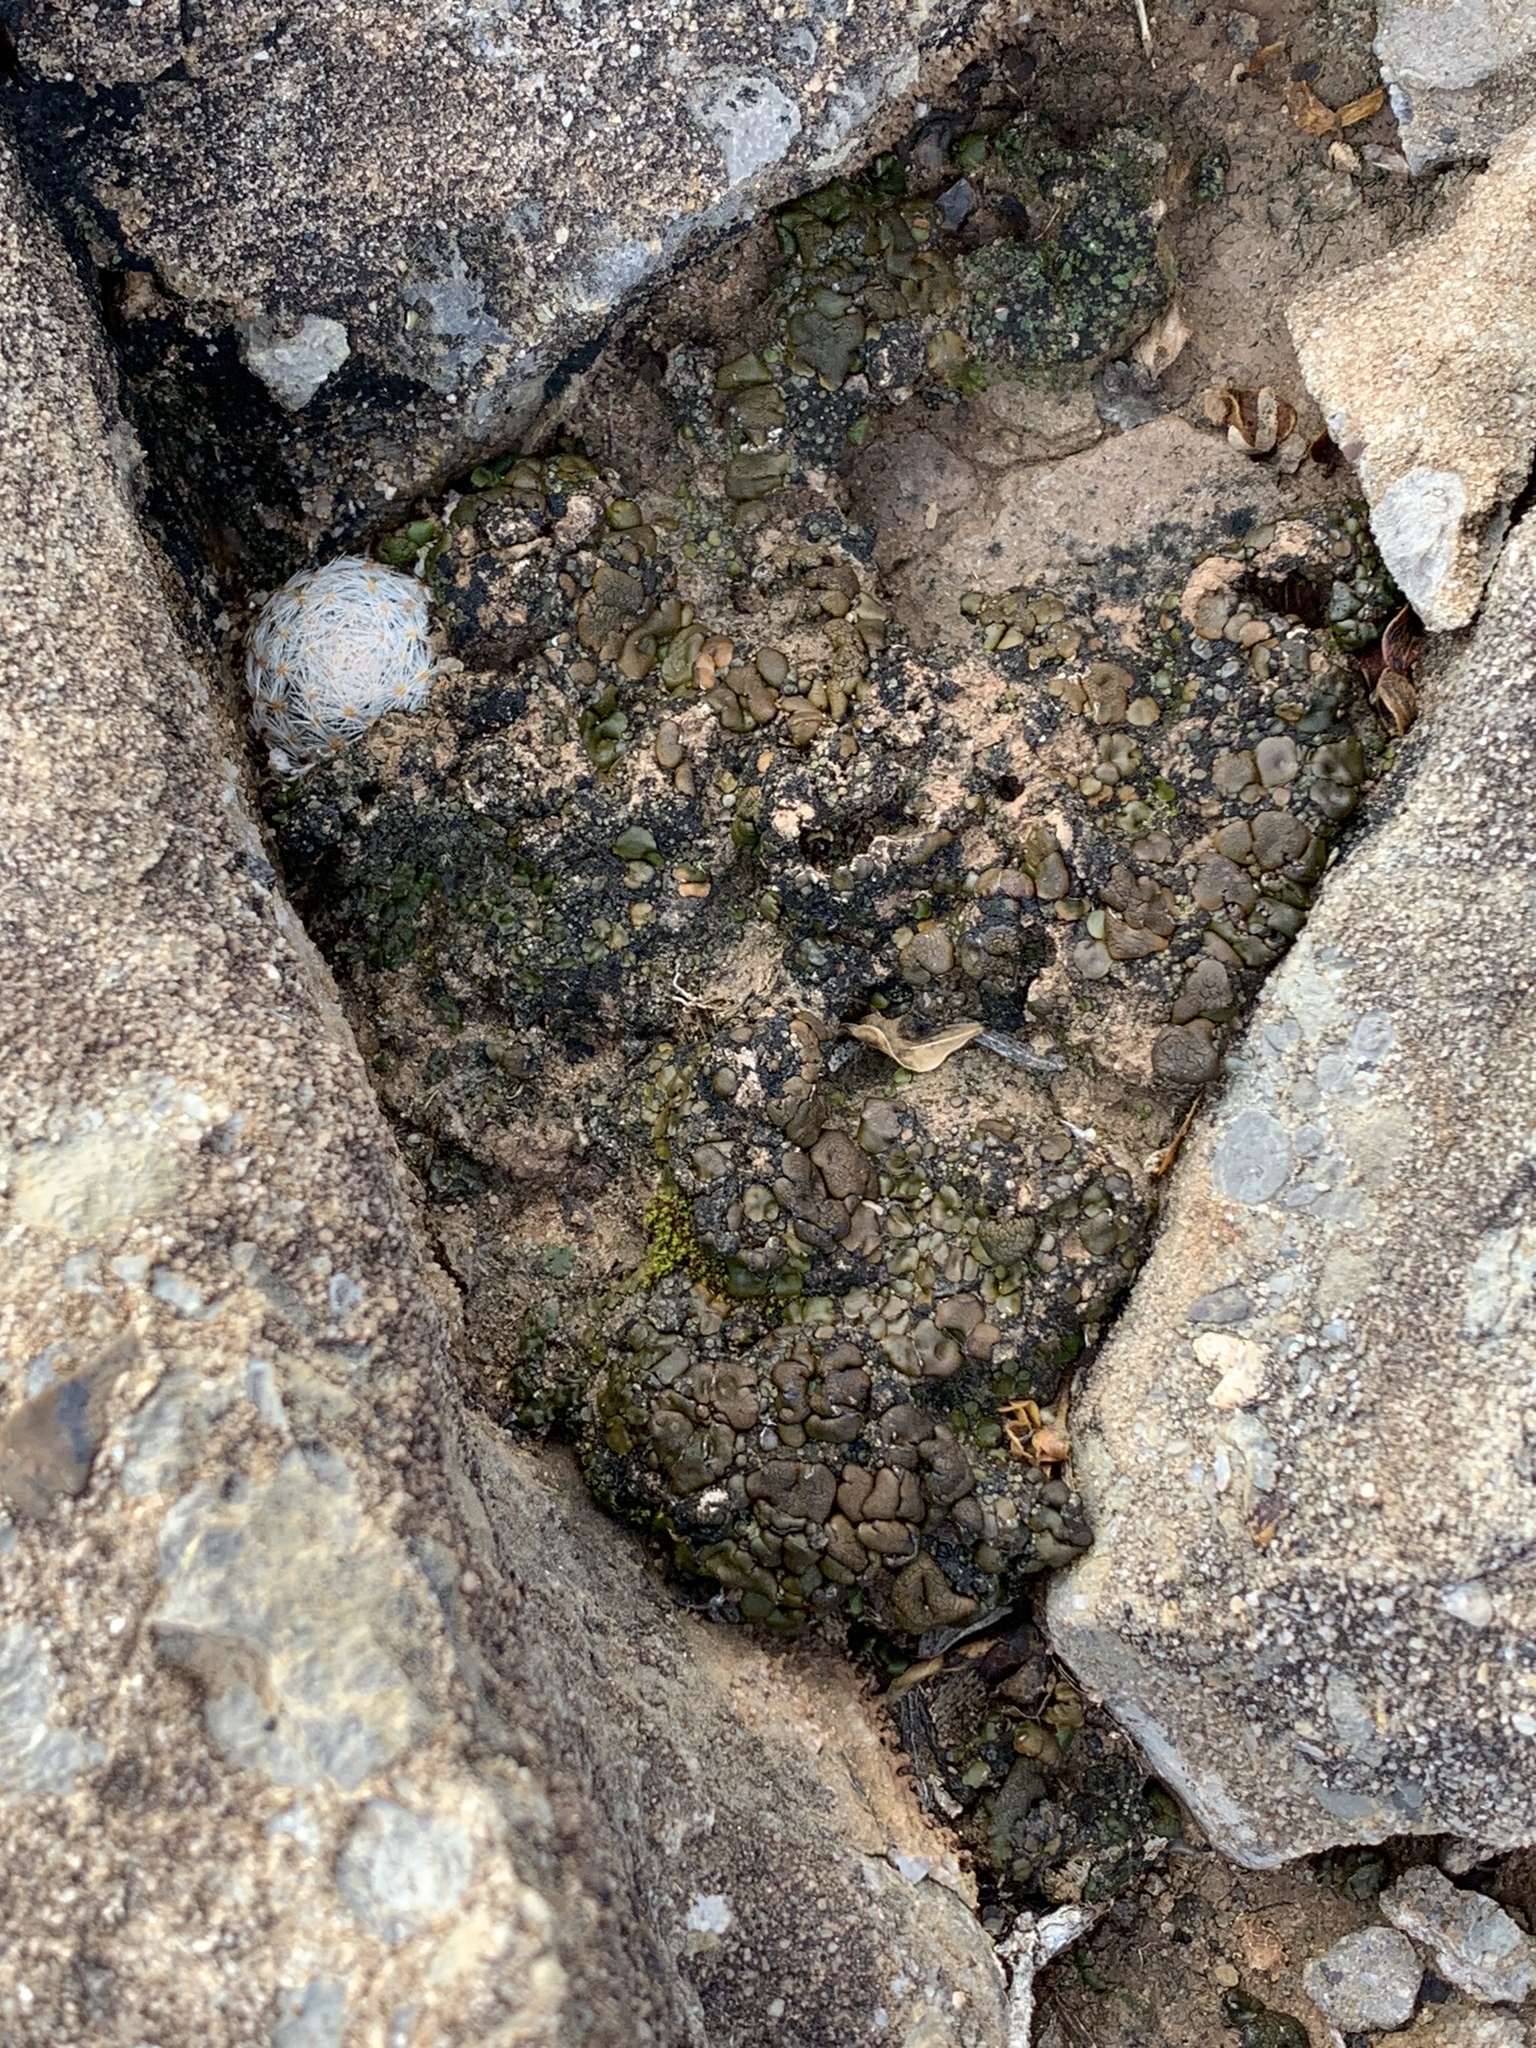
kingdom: Plantae
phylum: Tracheophyta
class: Magnoliopsida
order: Caryophyllales
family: Cactaceae
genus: Mammillaria
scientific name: Mammillaria lasiacantha
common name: Lace-spine nipple cactus
